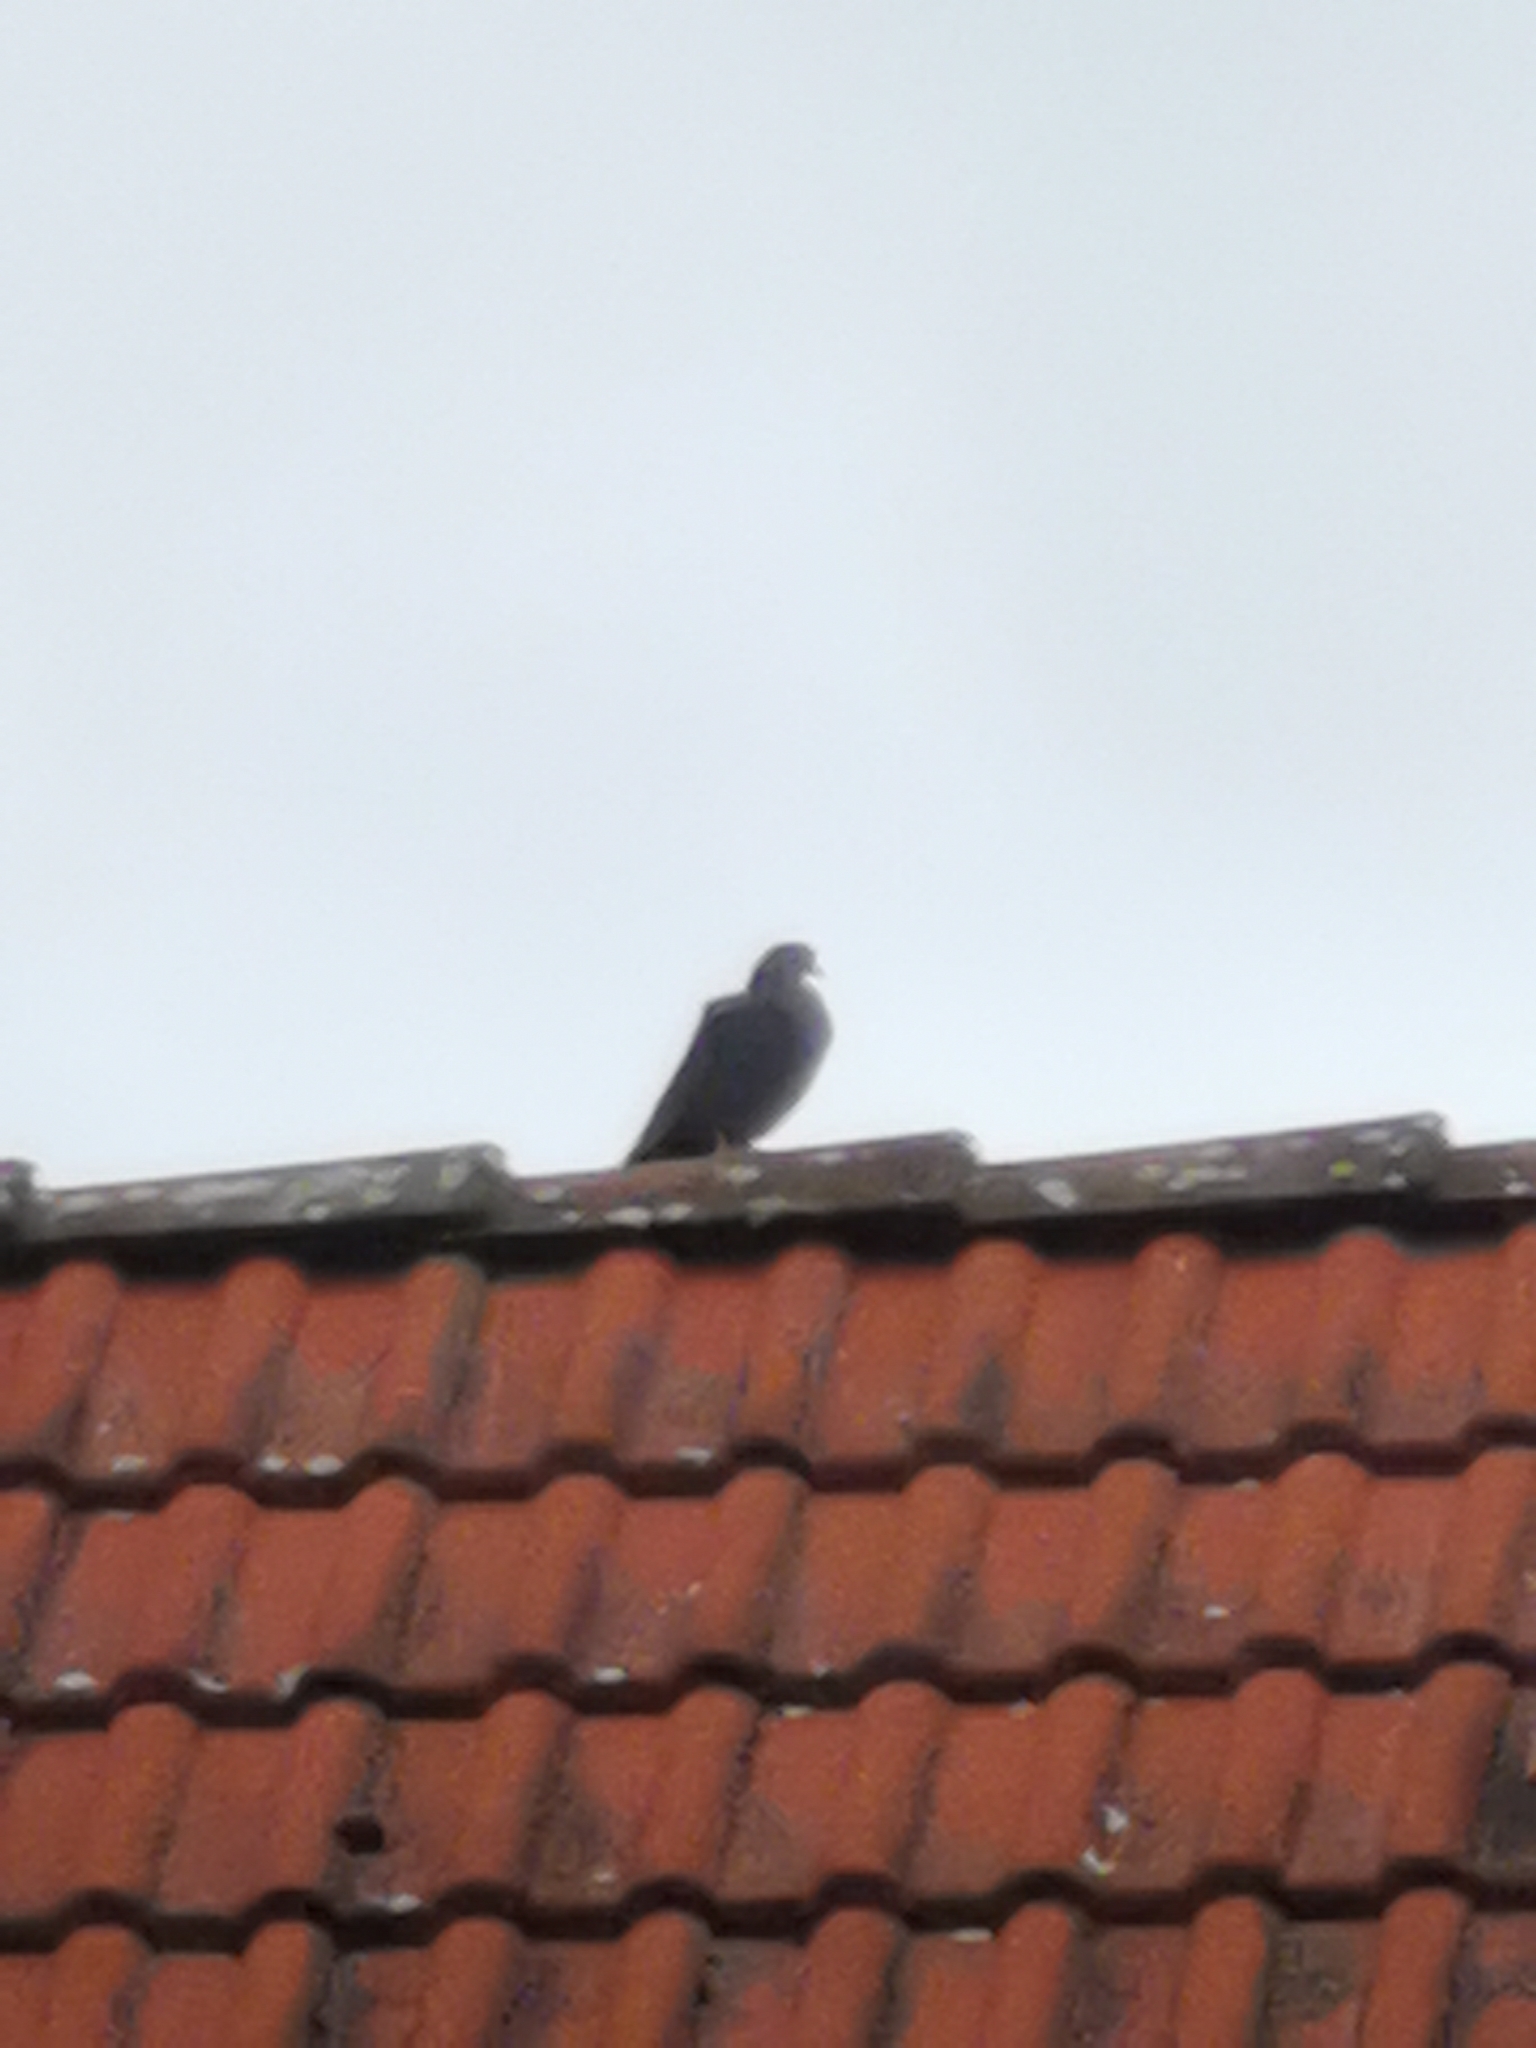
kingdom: Animalia
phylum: Chordata
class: Aves
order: Columbiformes
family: Columbidae
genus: Columba
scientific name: Columba livia
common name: Rock pigeon
